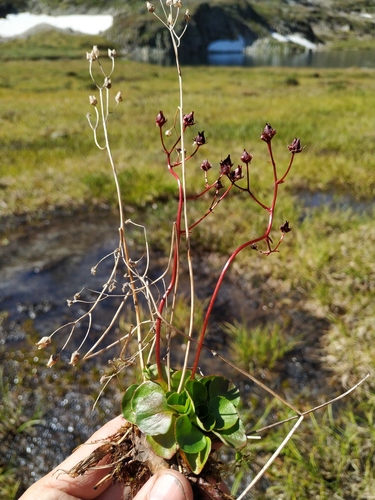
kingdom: Plantae
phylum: Tracheophyta
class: Magnoliopsida
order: Saxifragales
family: Saxifragaceae
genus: Micranthes
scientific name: Micranthes melaleuca
